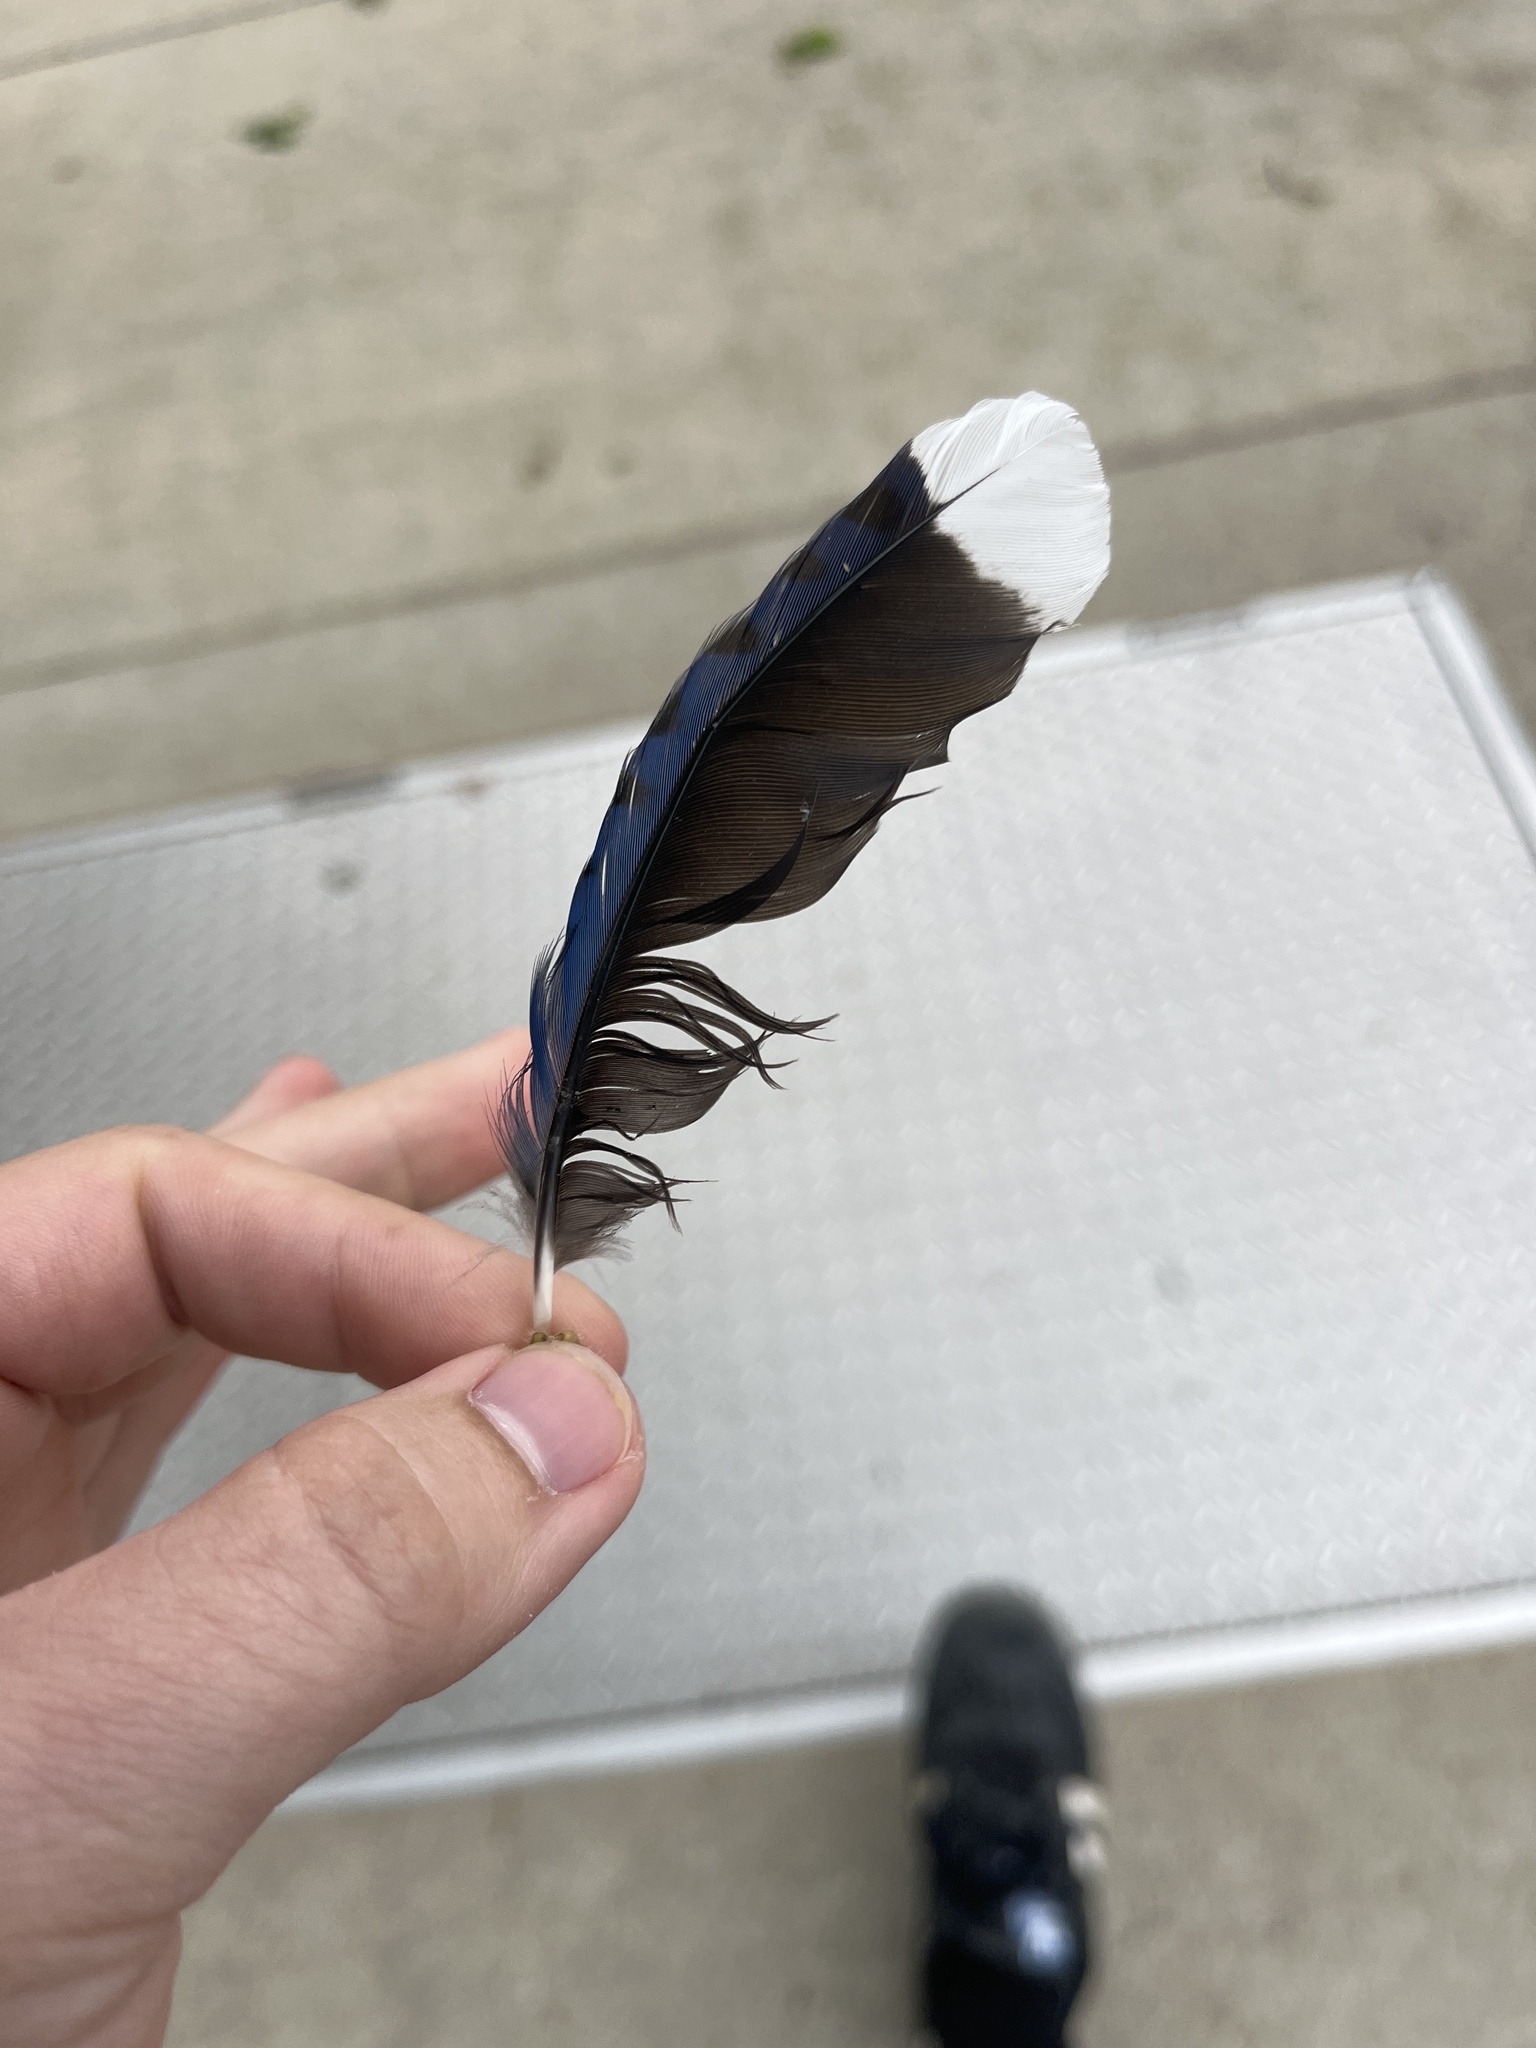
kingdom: Animalia
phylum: Chordata
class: Aves
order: Passeriformes
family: Corvidae
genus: Cyanocitta
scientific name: Cyanocitta cristata
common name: Blue jay
